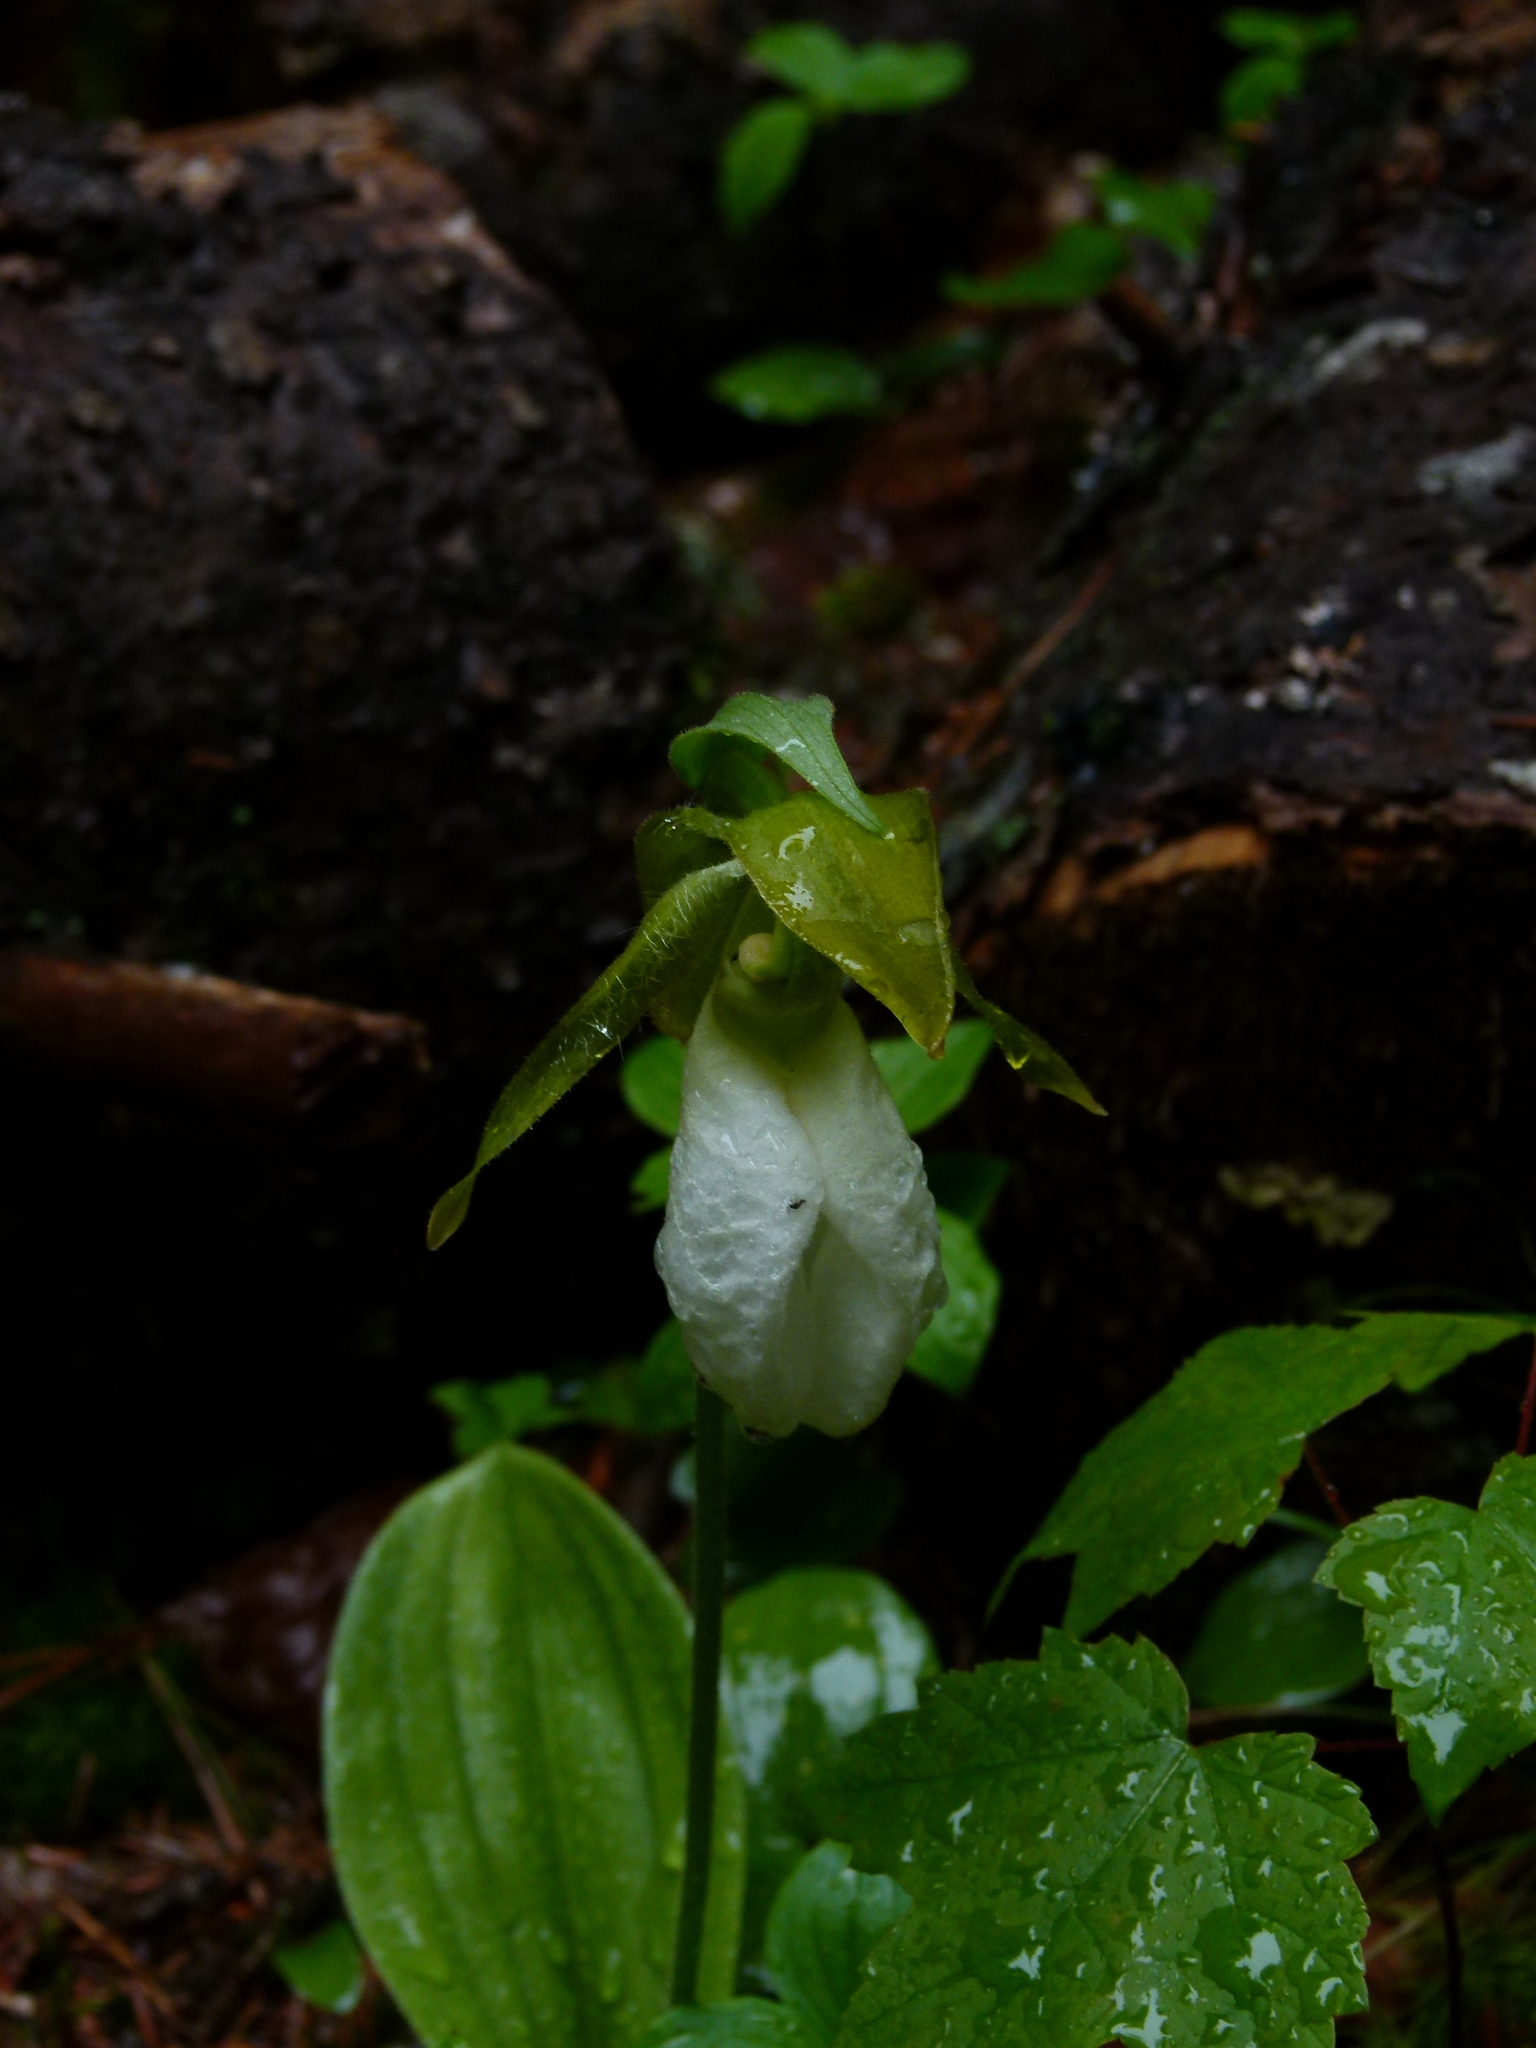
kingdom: Plantae
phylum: Tracheophyta
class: Liliopsida
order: Asparagales
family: Orchidaceae
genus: Cypripedium
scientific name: Cypripedium acaule
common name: Pink lady's-slipper
